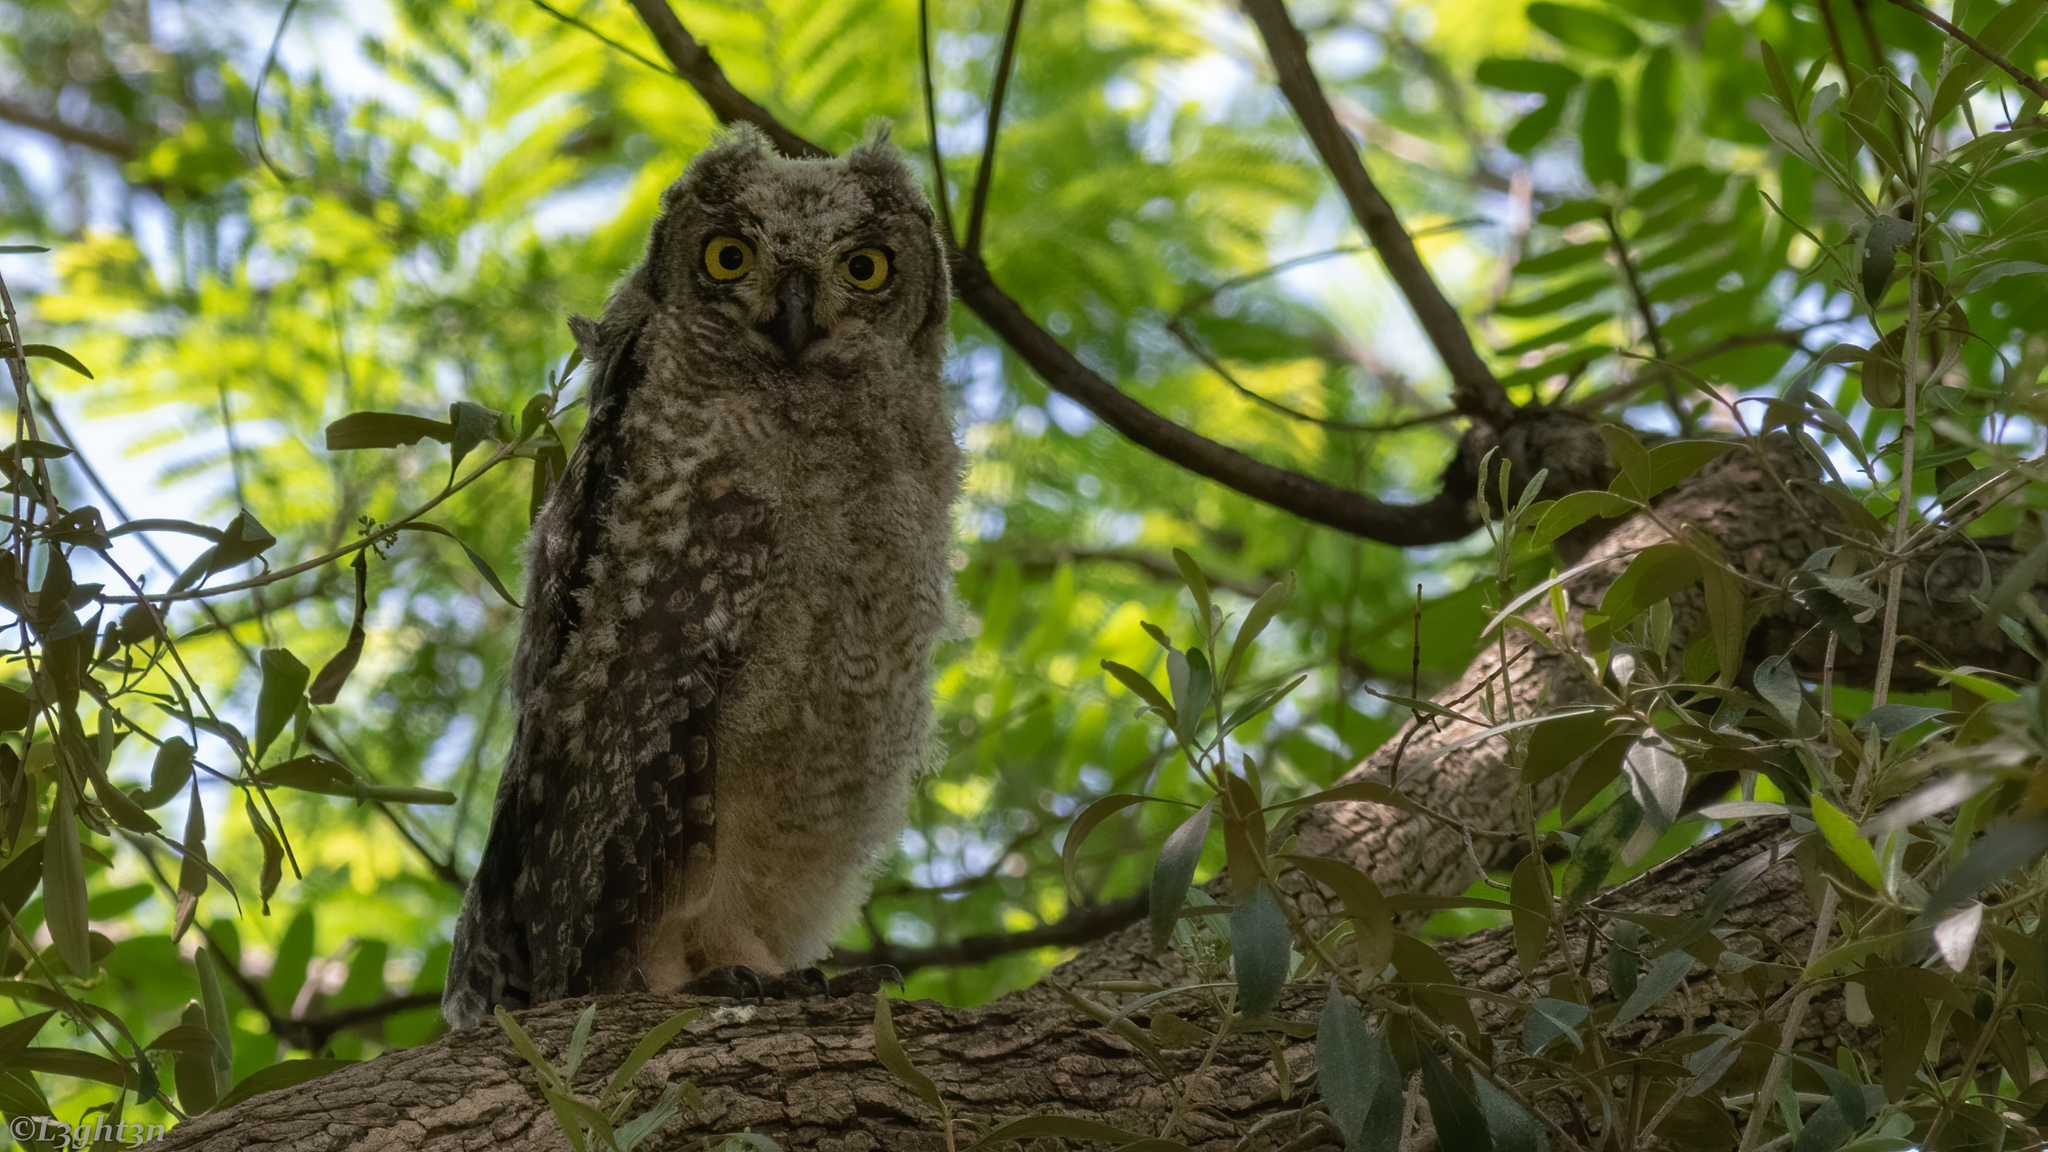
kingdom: Animalia
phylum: Chordata
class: Aves
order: Strigiformes
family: Strigidae
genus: Bubo
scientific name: Bubo africanus
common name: Spotted eagle-owl
